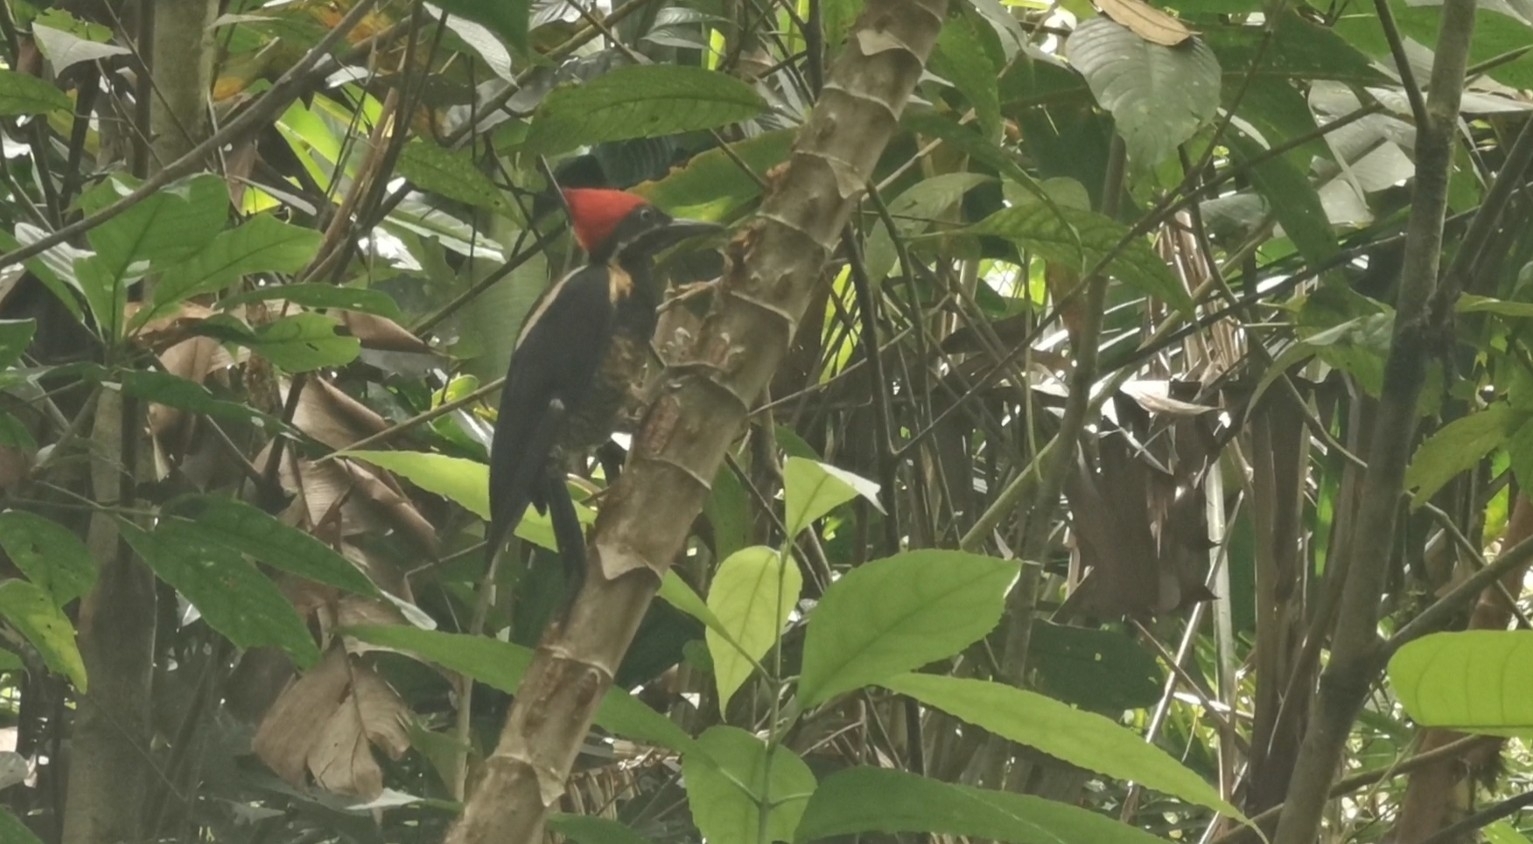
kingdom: Animalia
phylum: Chordata
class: Aves
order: Piciformes
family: Picidae
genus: Dryocopus
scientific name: Dryocopus lineatus
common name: Lineated woodpecker
